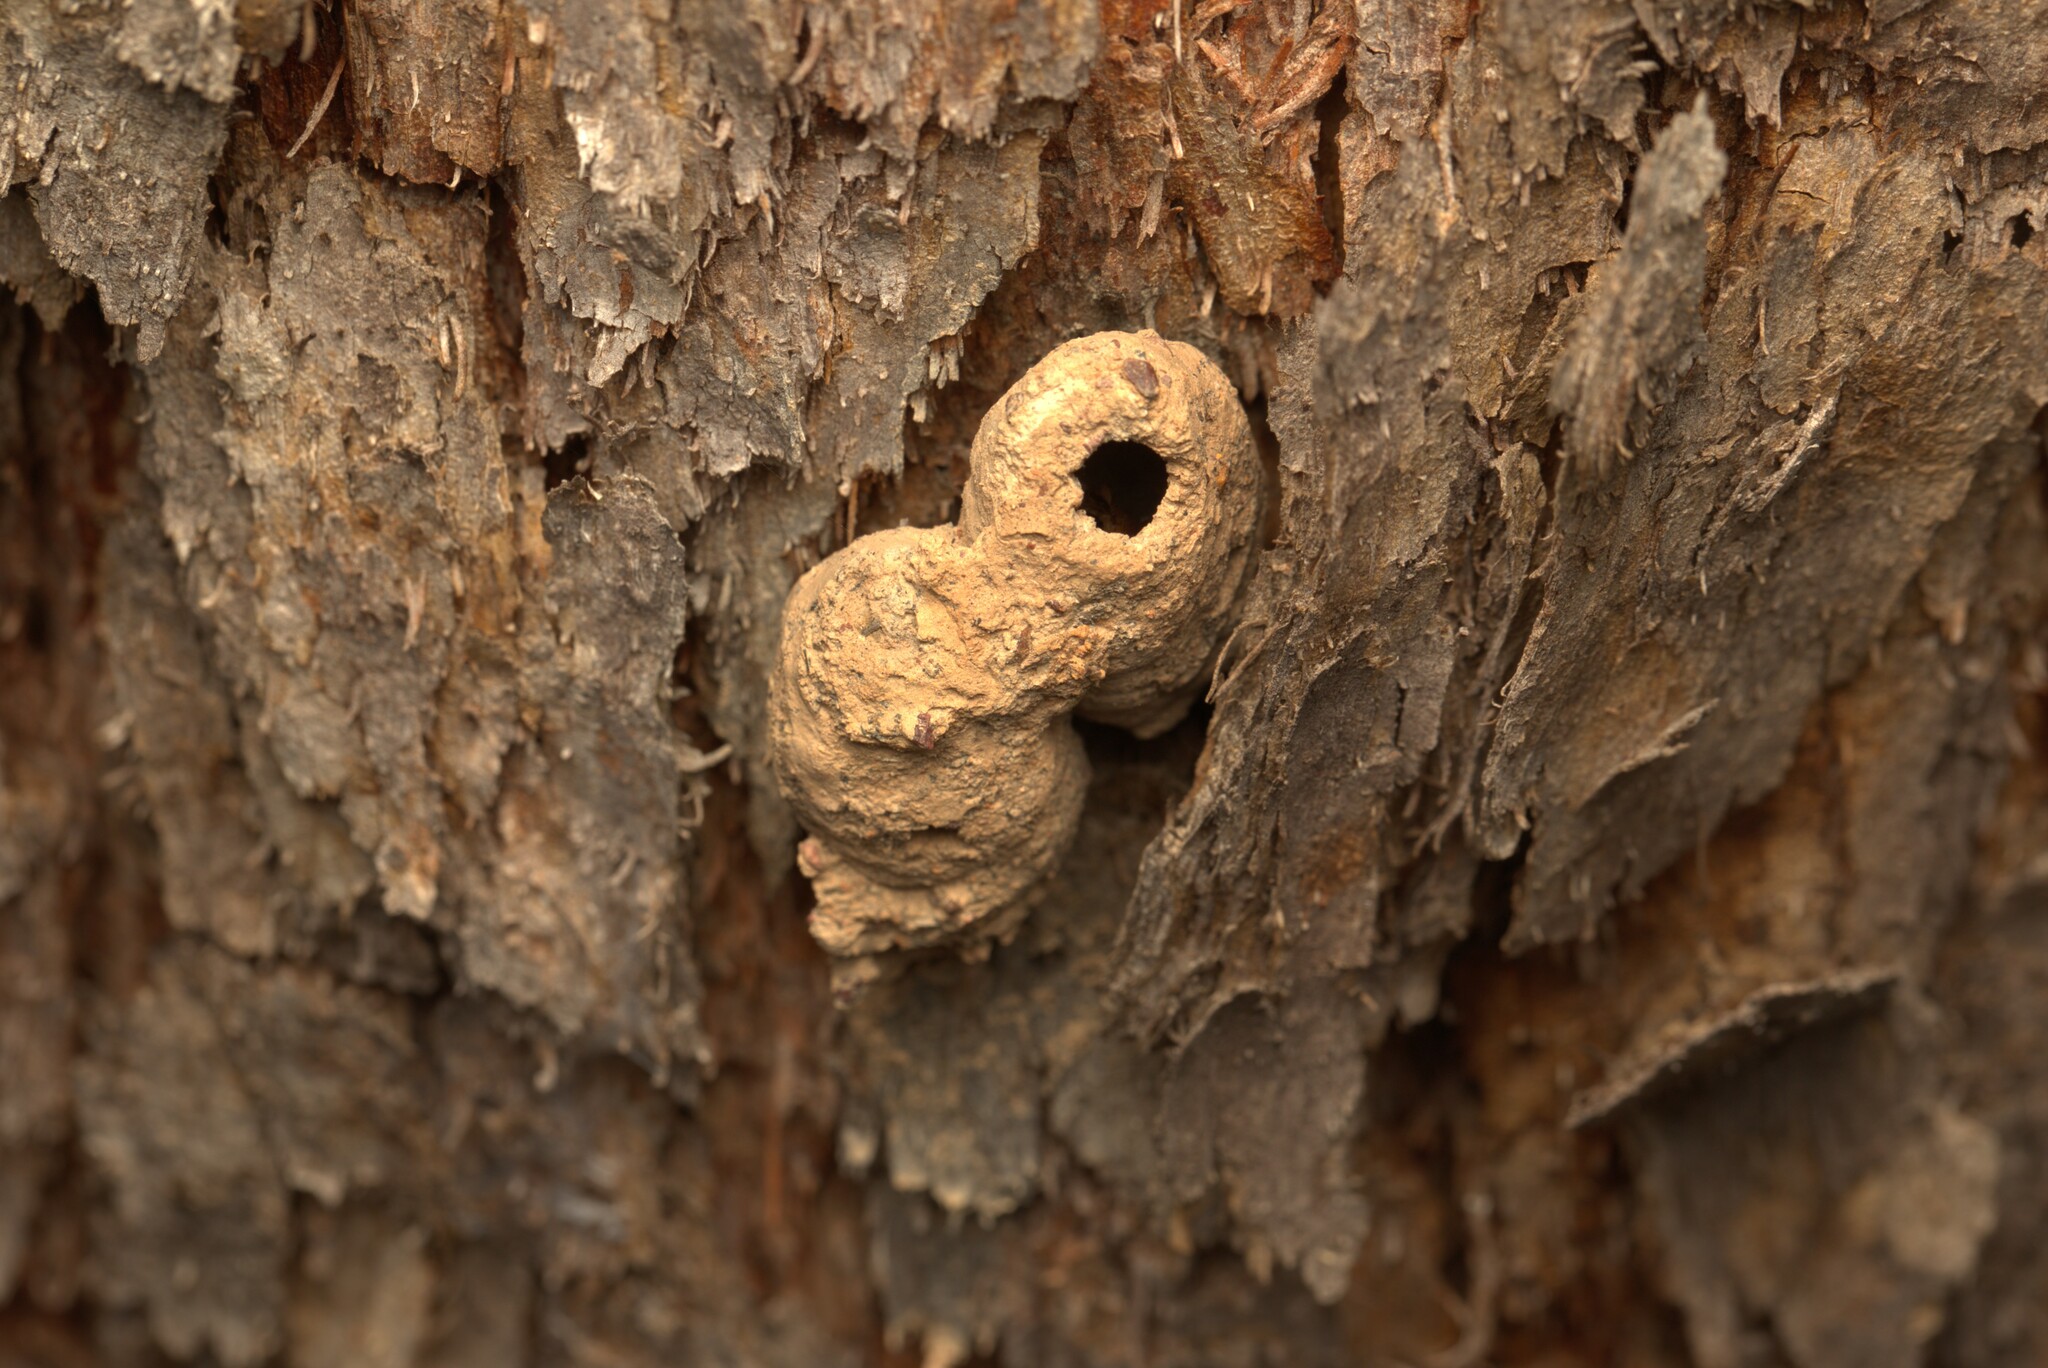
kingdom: Animalia
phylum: Arthropoda
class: Insecta
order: Hymenoptera
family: Eumenidae
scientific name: Eumenidae
